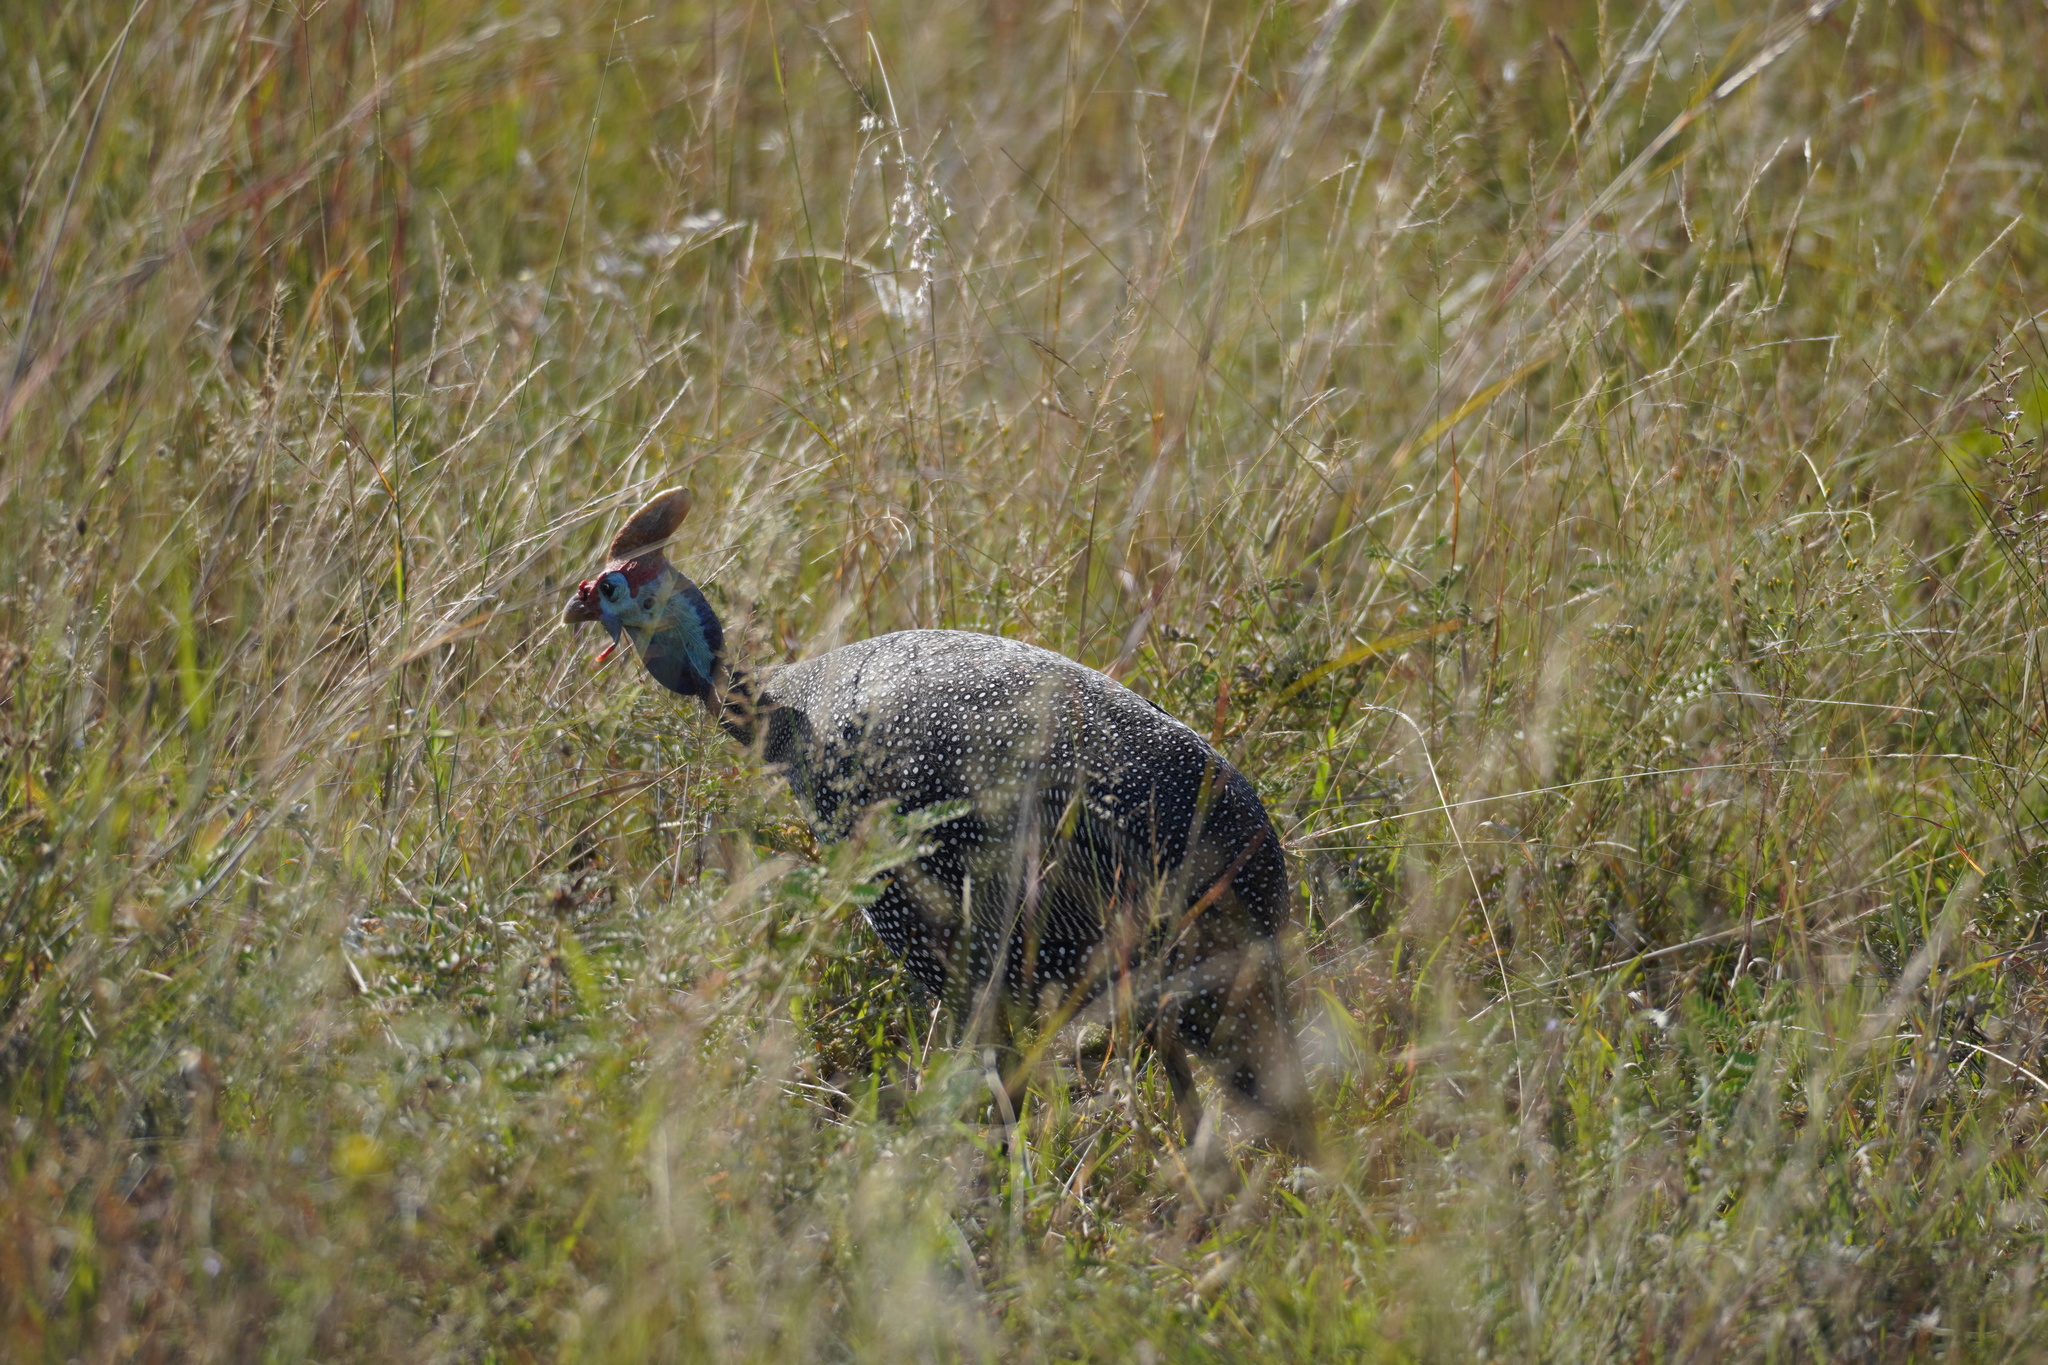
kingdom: Animalia
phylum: Chordata
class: Aves
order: Galliformes
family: Numididae
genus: Numida
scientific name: Numida meleagris
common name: Helmeted guineafowl
